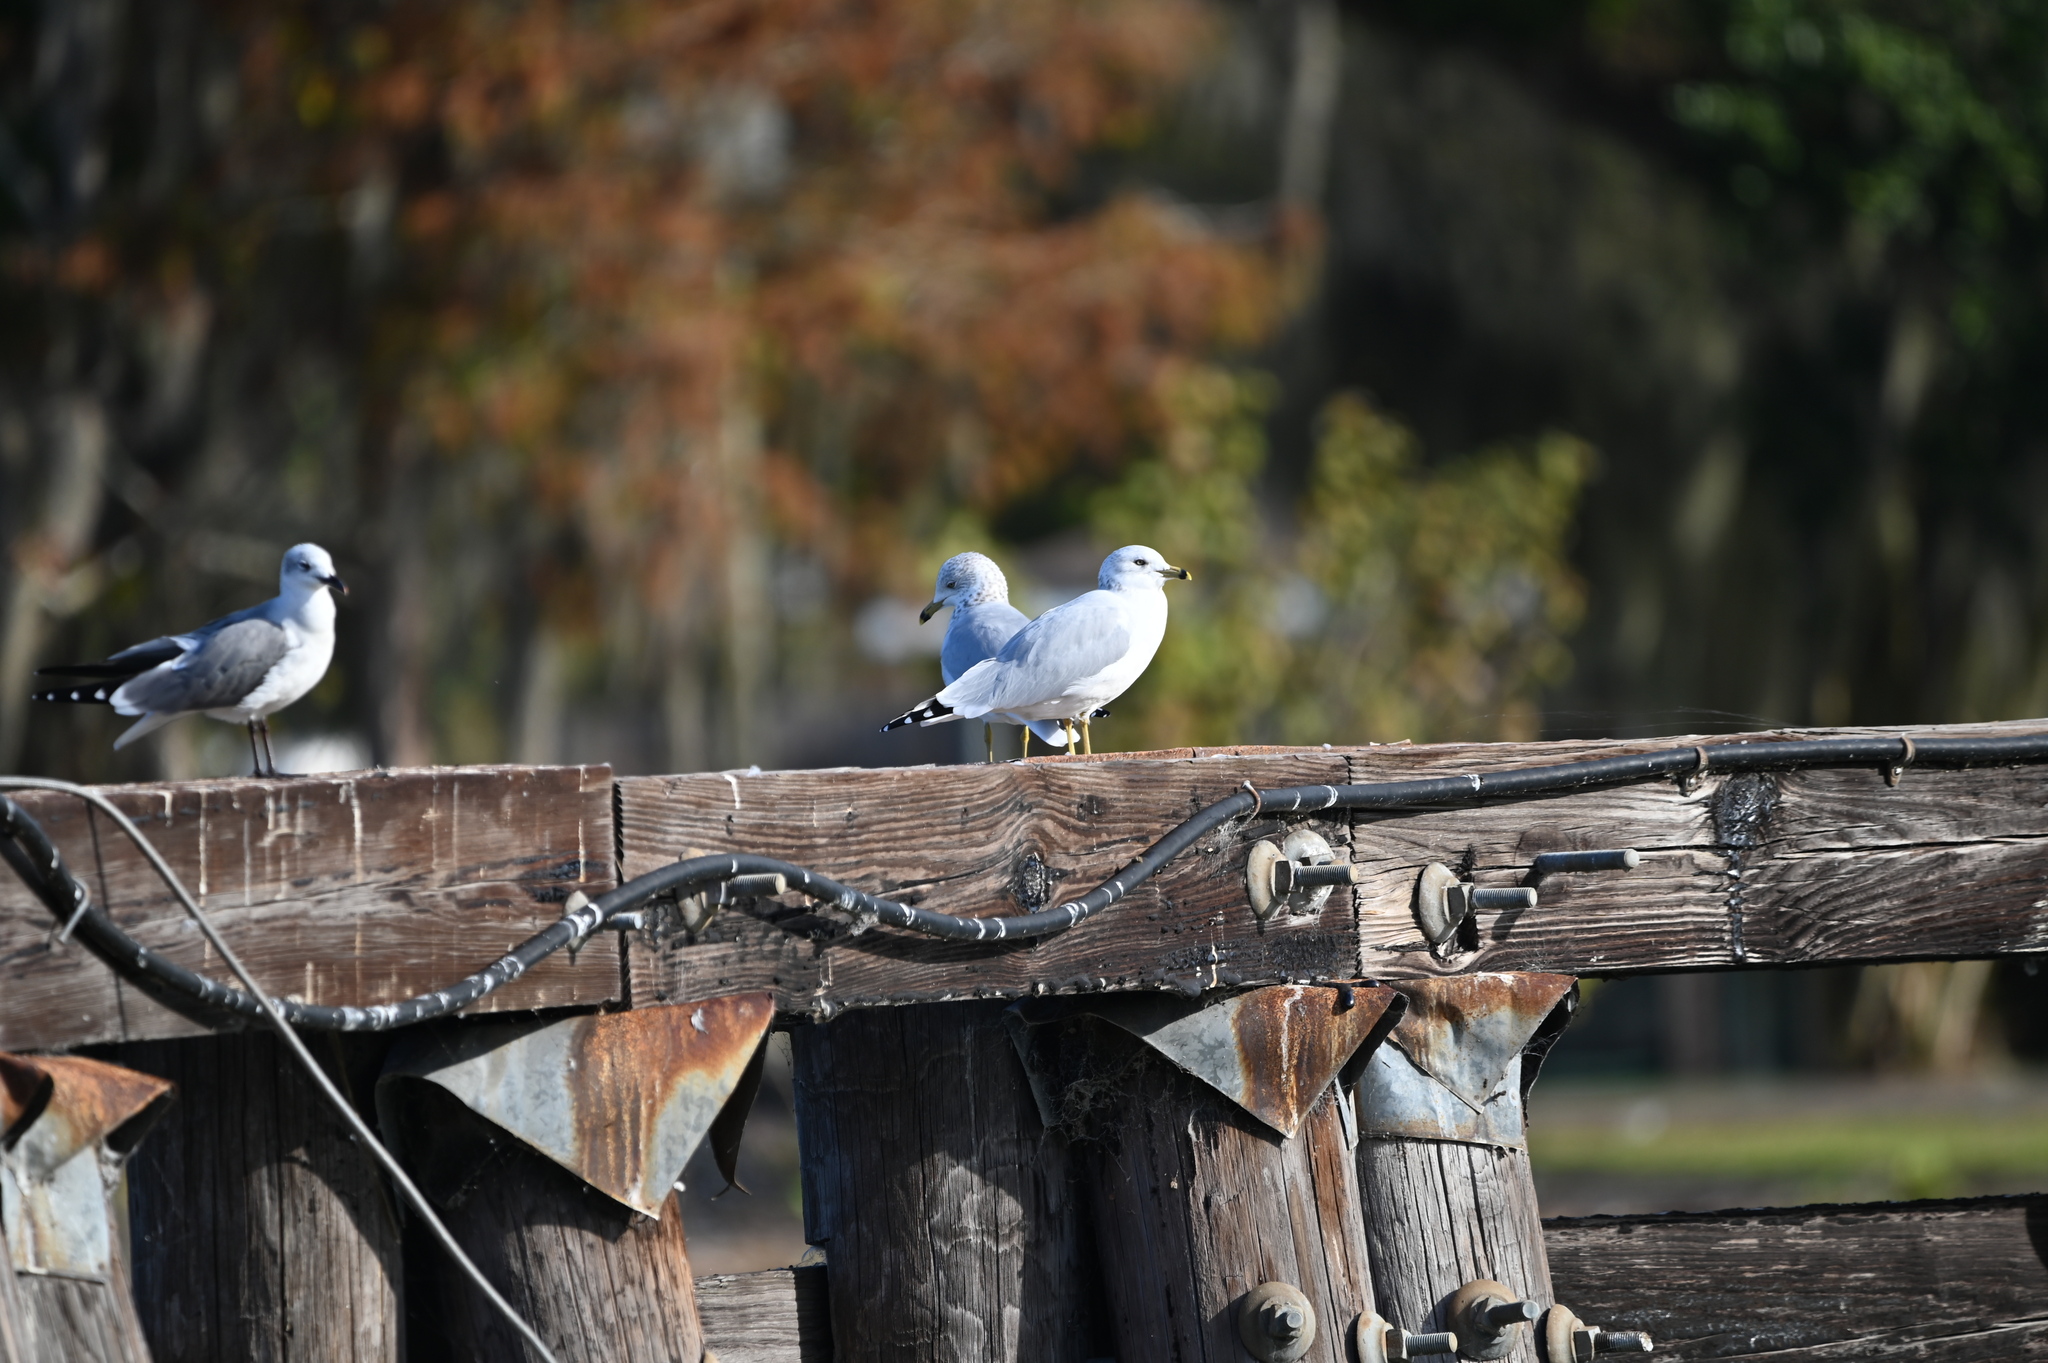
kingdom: Animalia
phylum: Chordata
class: Aves
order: Charadriiformes
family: Laridae
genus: Larus
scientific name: Larus delawarensis
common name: Ring-billed gull
